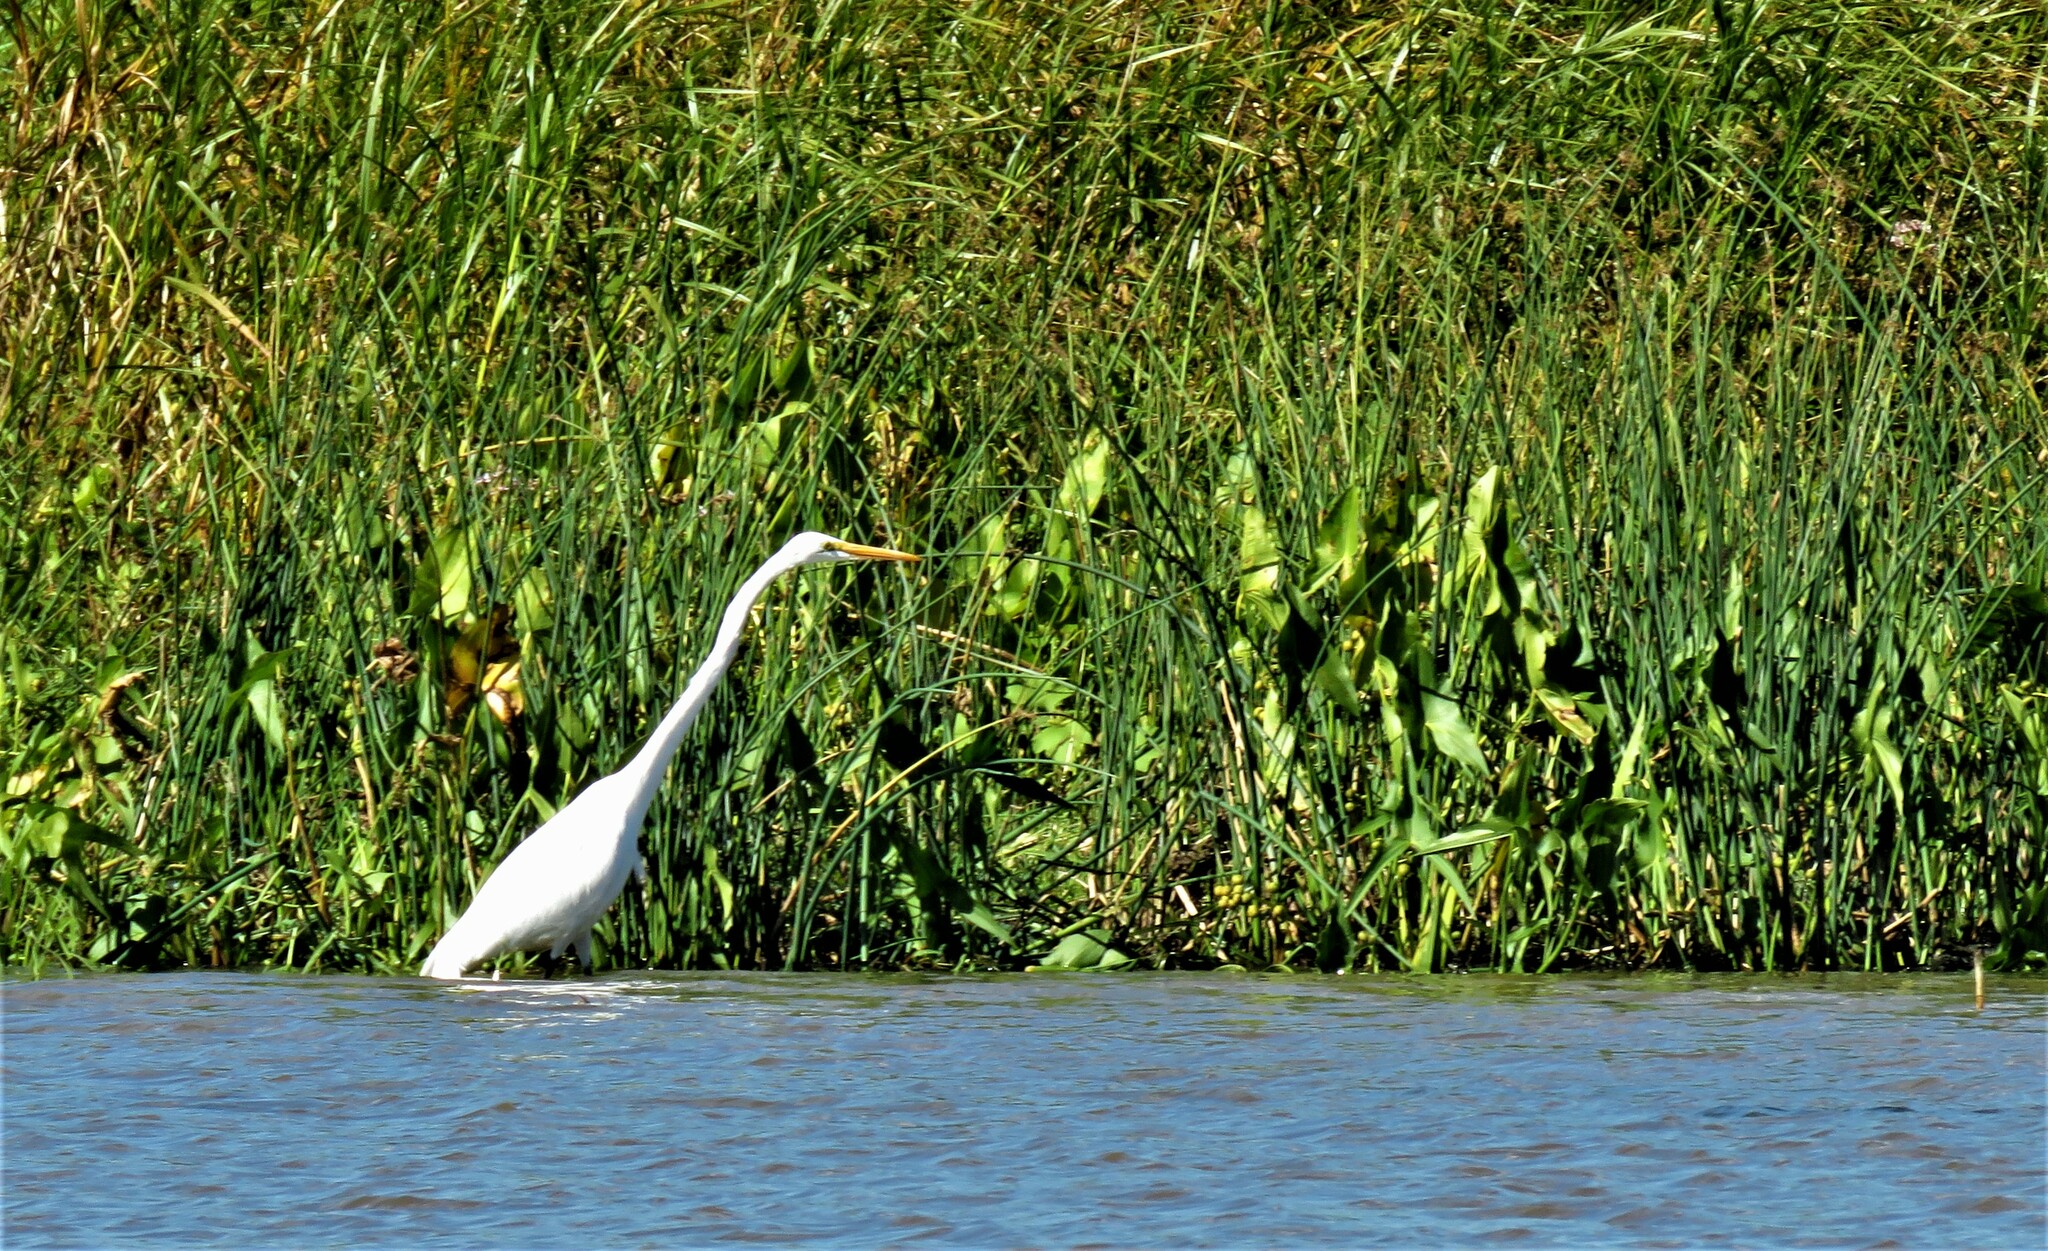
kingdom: Animalia
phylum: Chordata
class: Aves
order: Pelecaniformes
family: Ardeidae
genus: Ardea
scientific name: Ardea alba
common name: Great egret
